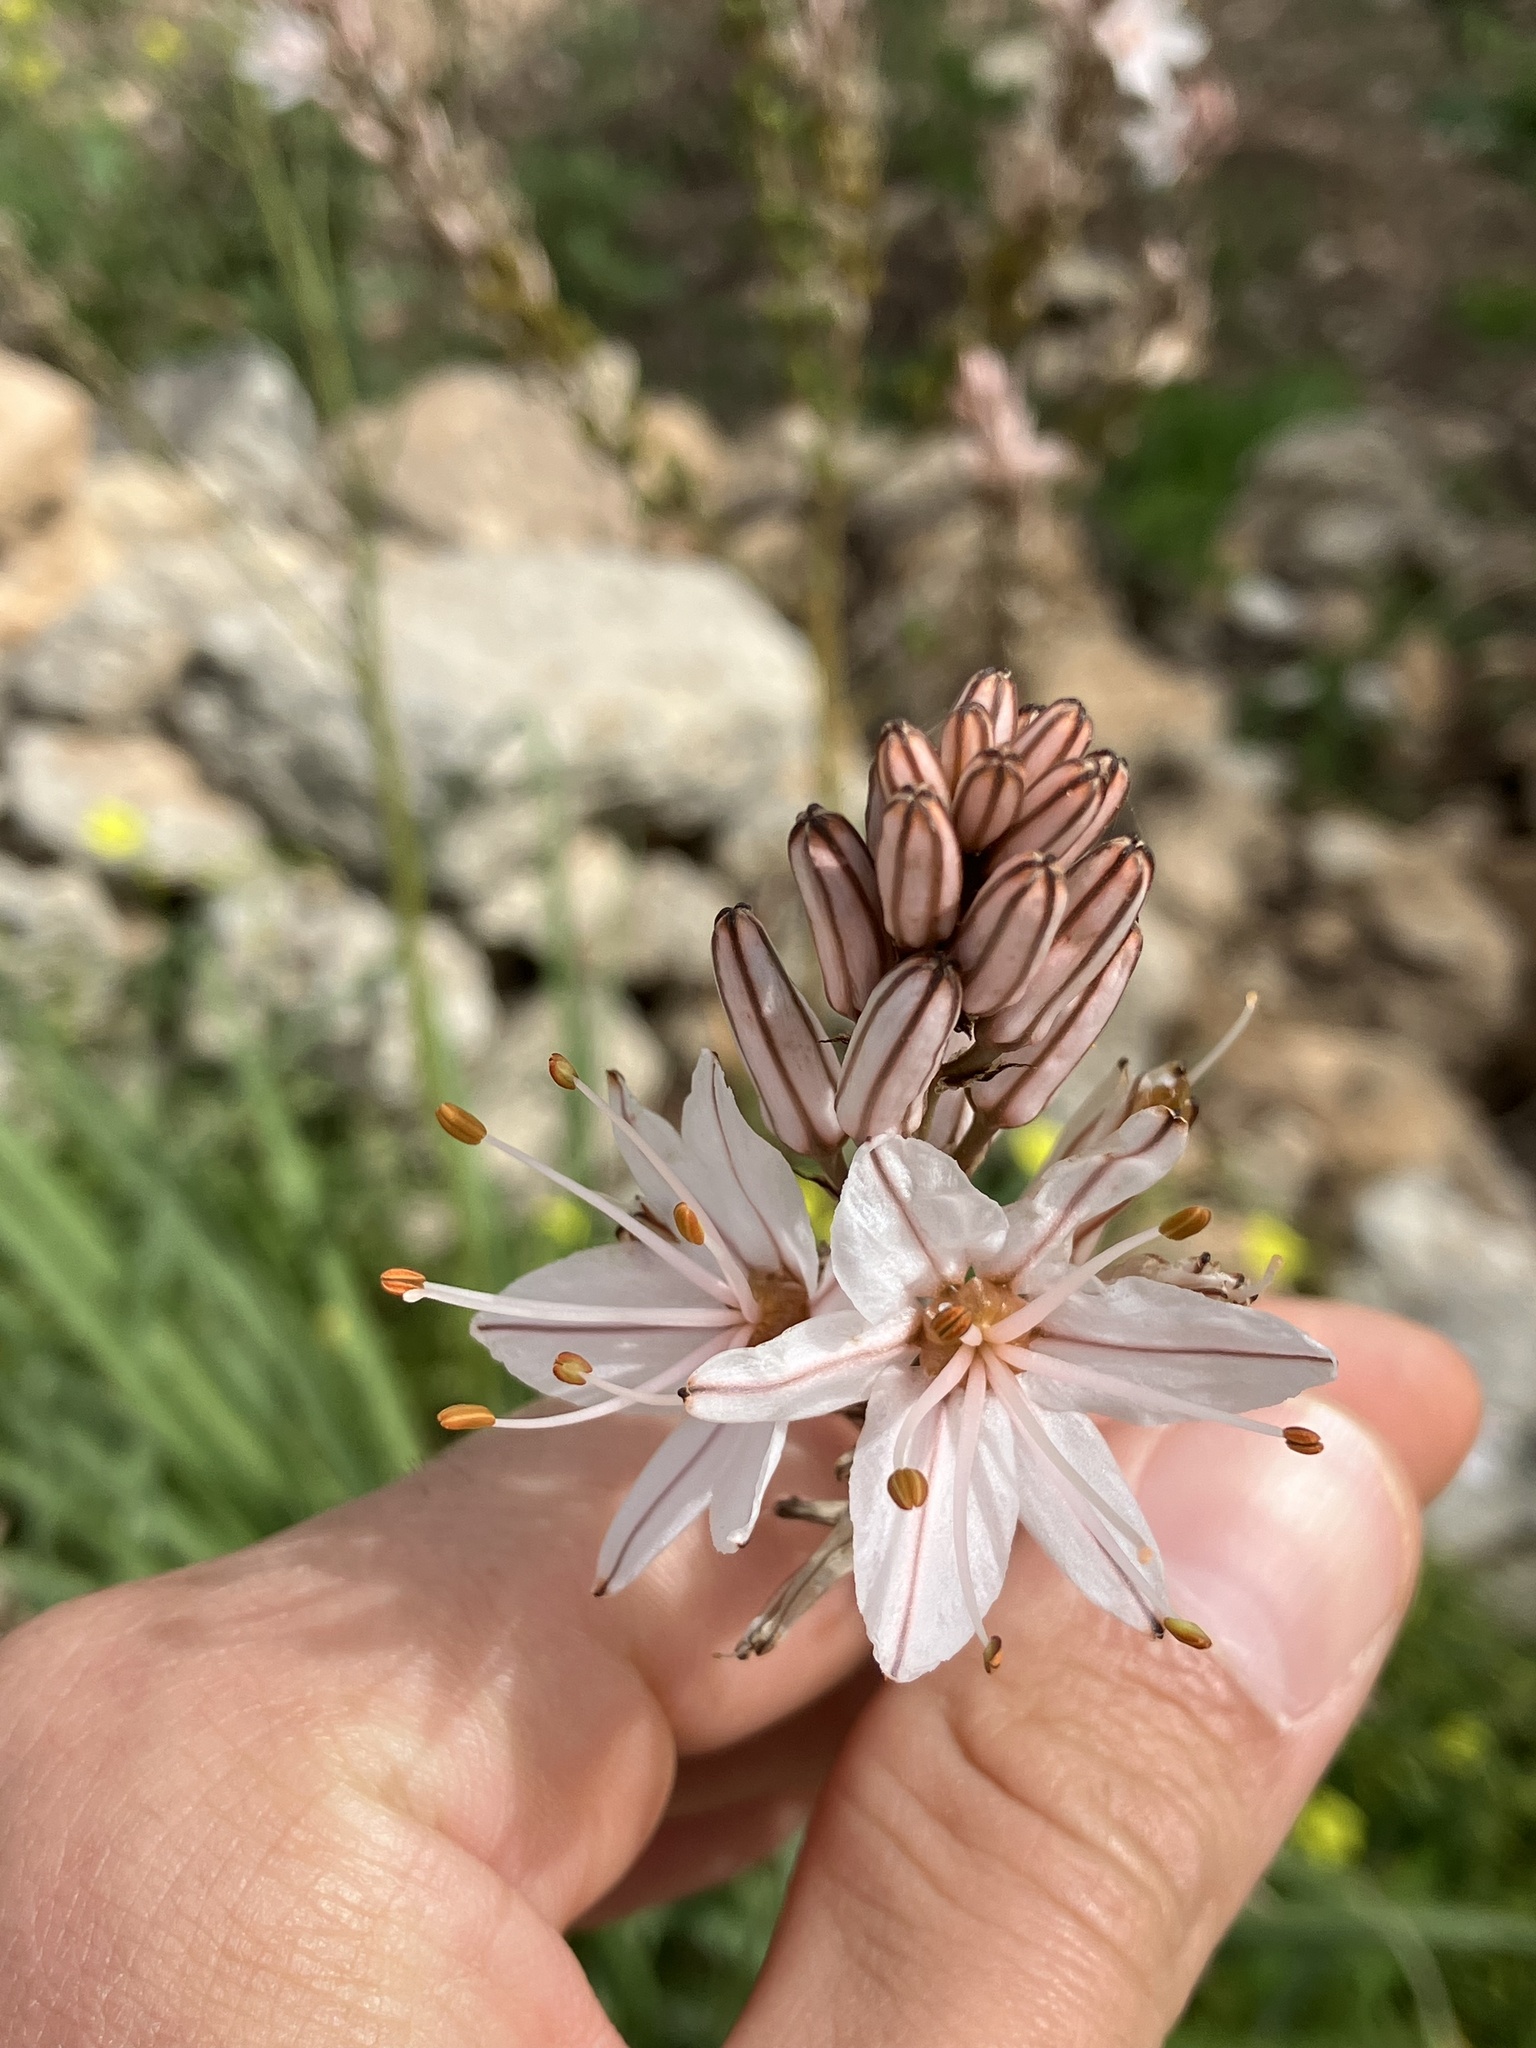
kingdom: Plantae
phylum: Tracheophyta
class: Liliopsida
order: Asparagales
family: Asphodelaceae
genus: Asphodelus
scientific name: Asphodelus ramosus
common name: Silverrod
